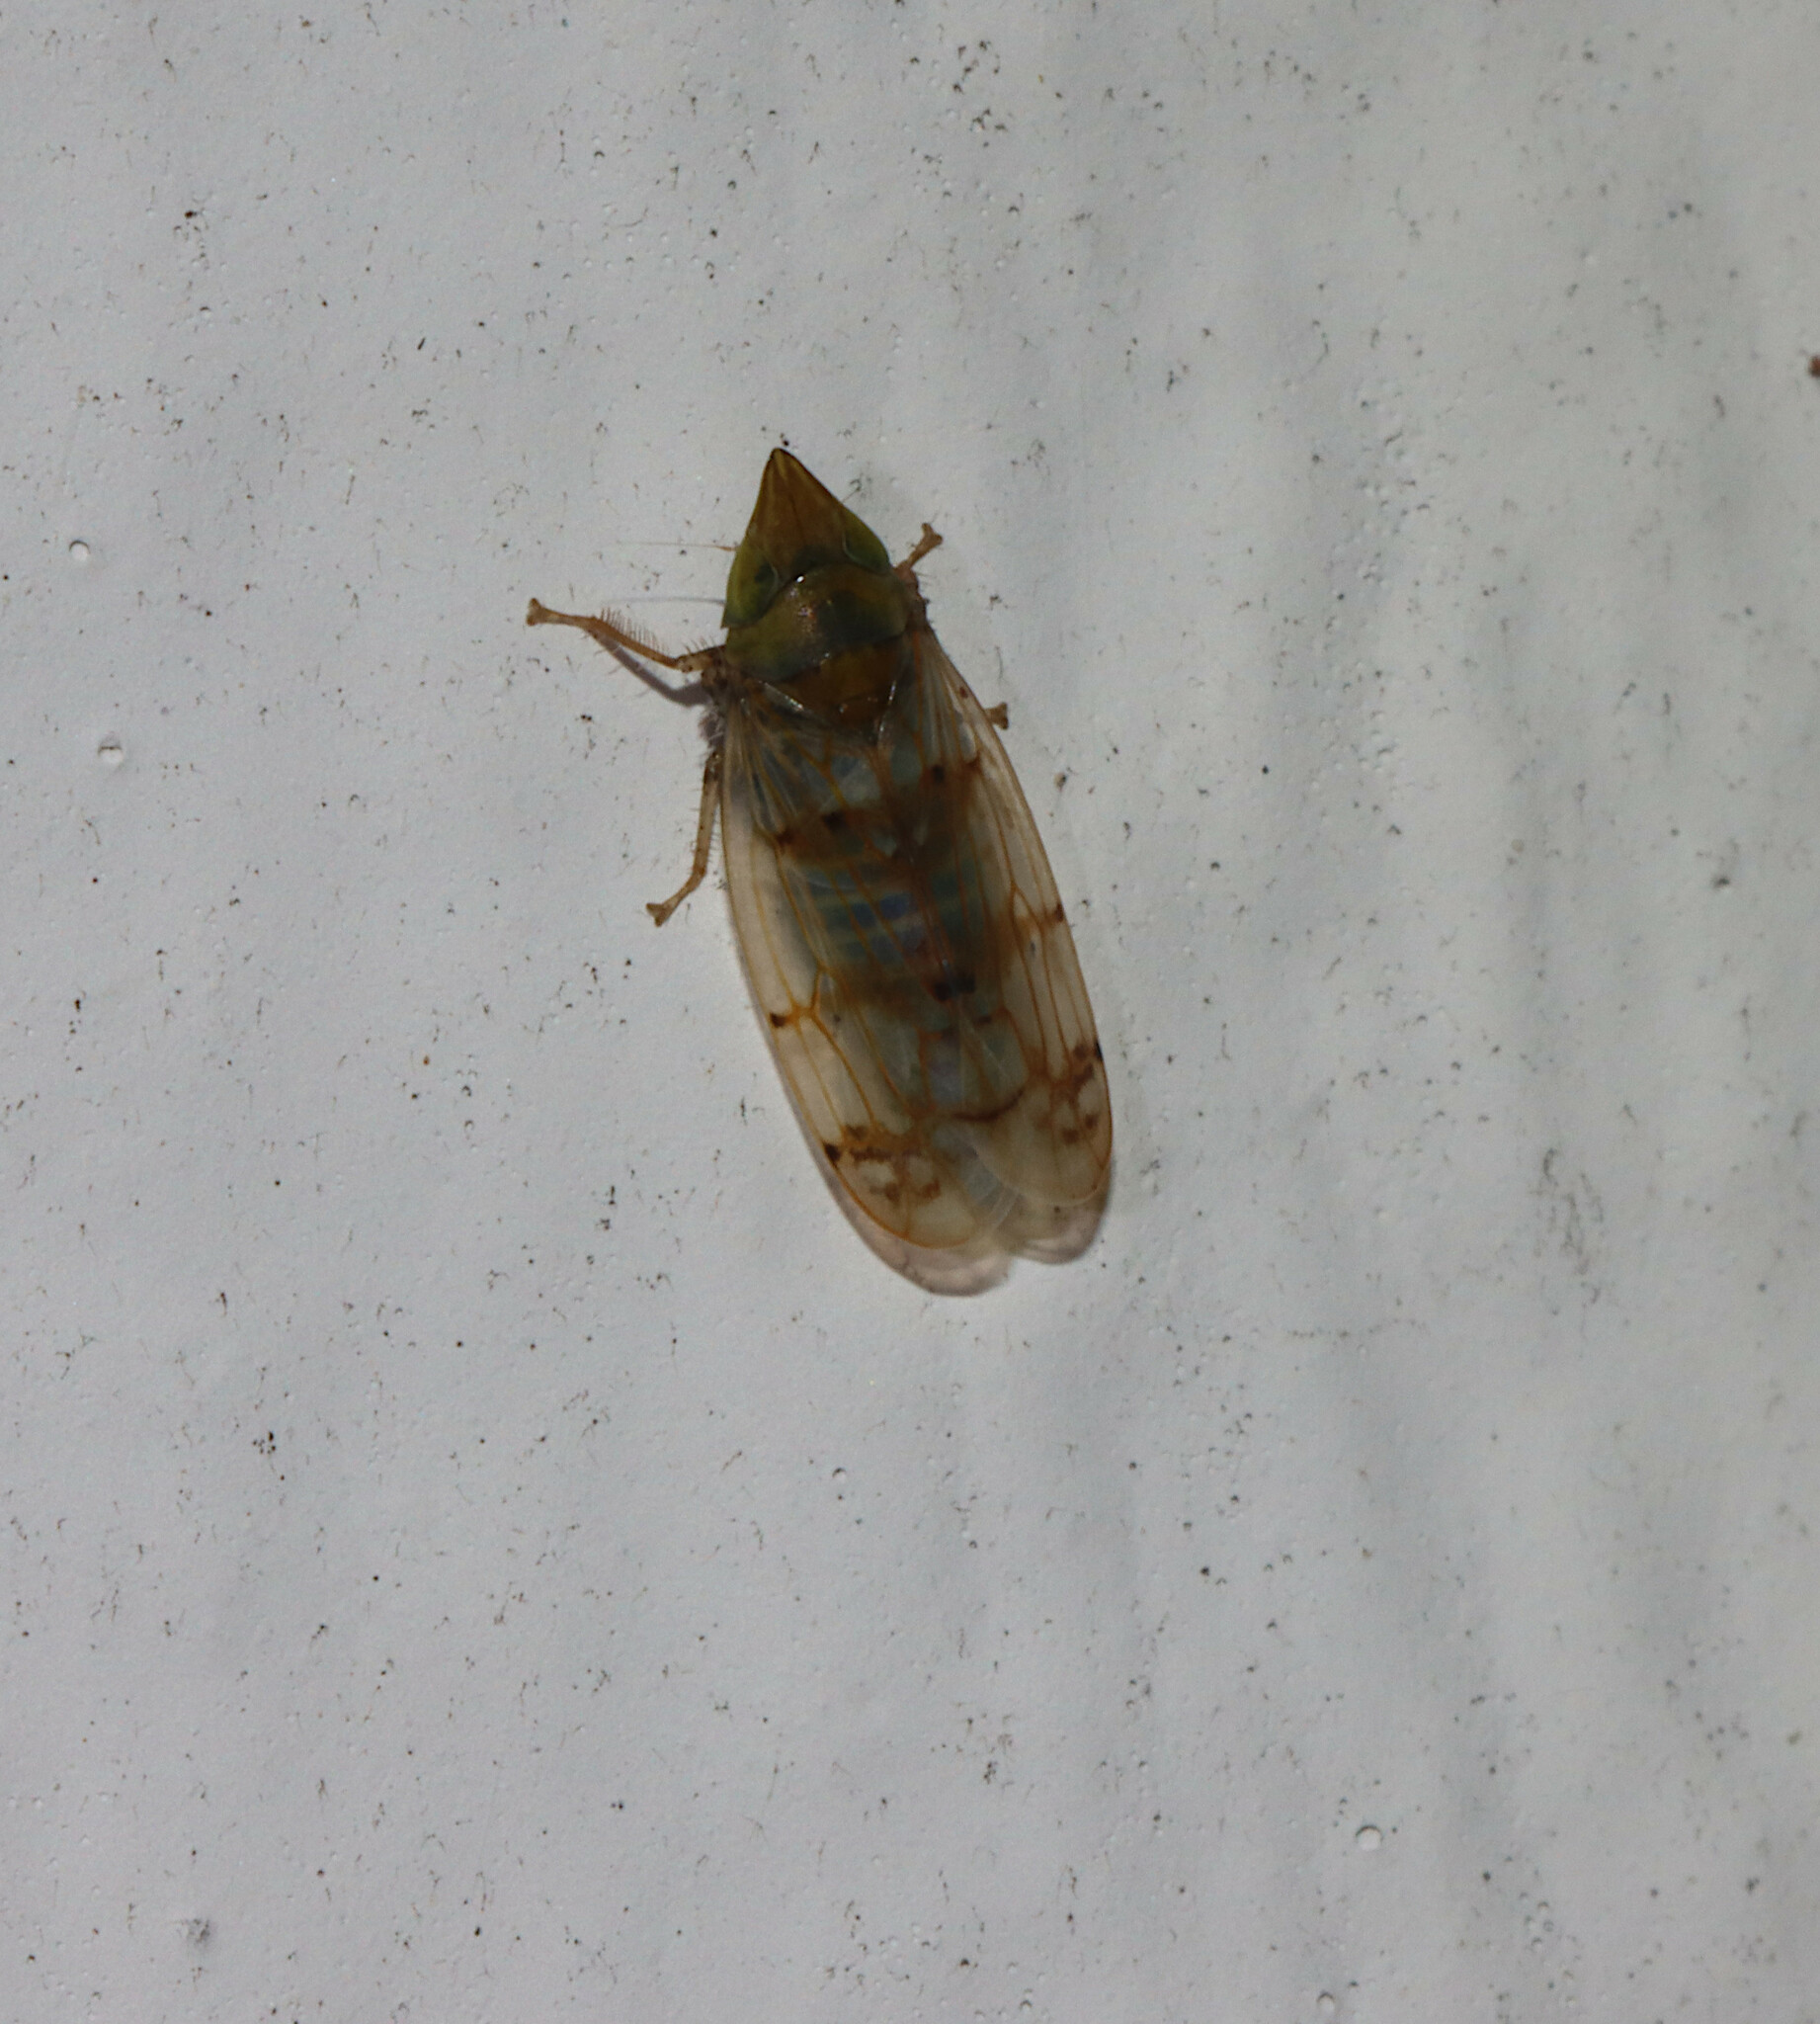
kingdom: Animalia
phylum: Arthropoda
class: Insecta
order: Hemiptera
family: Cicadellidae
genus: Japananus
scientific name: Japananus hyalinus
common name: The japanese maple leafhopper
